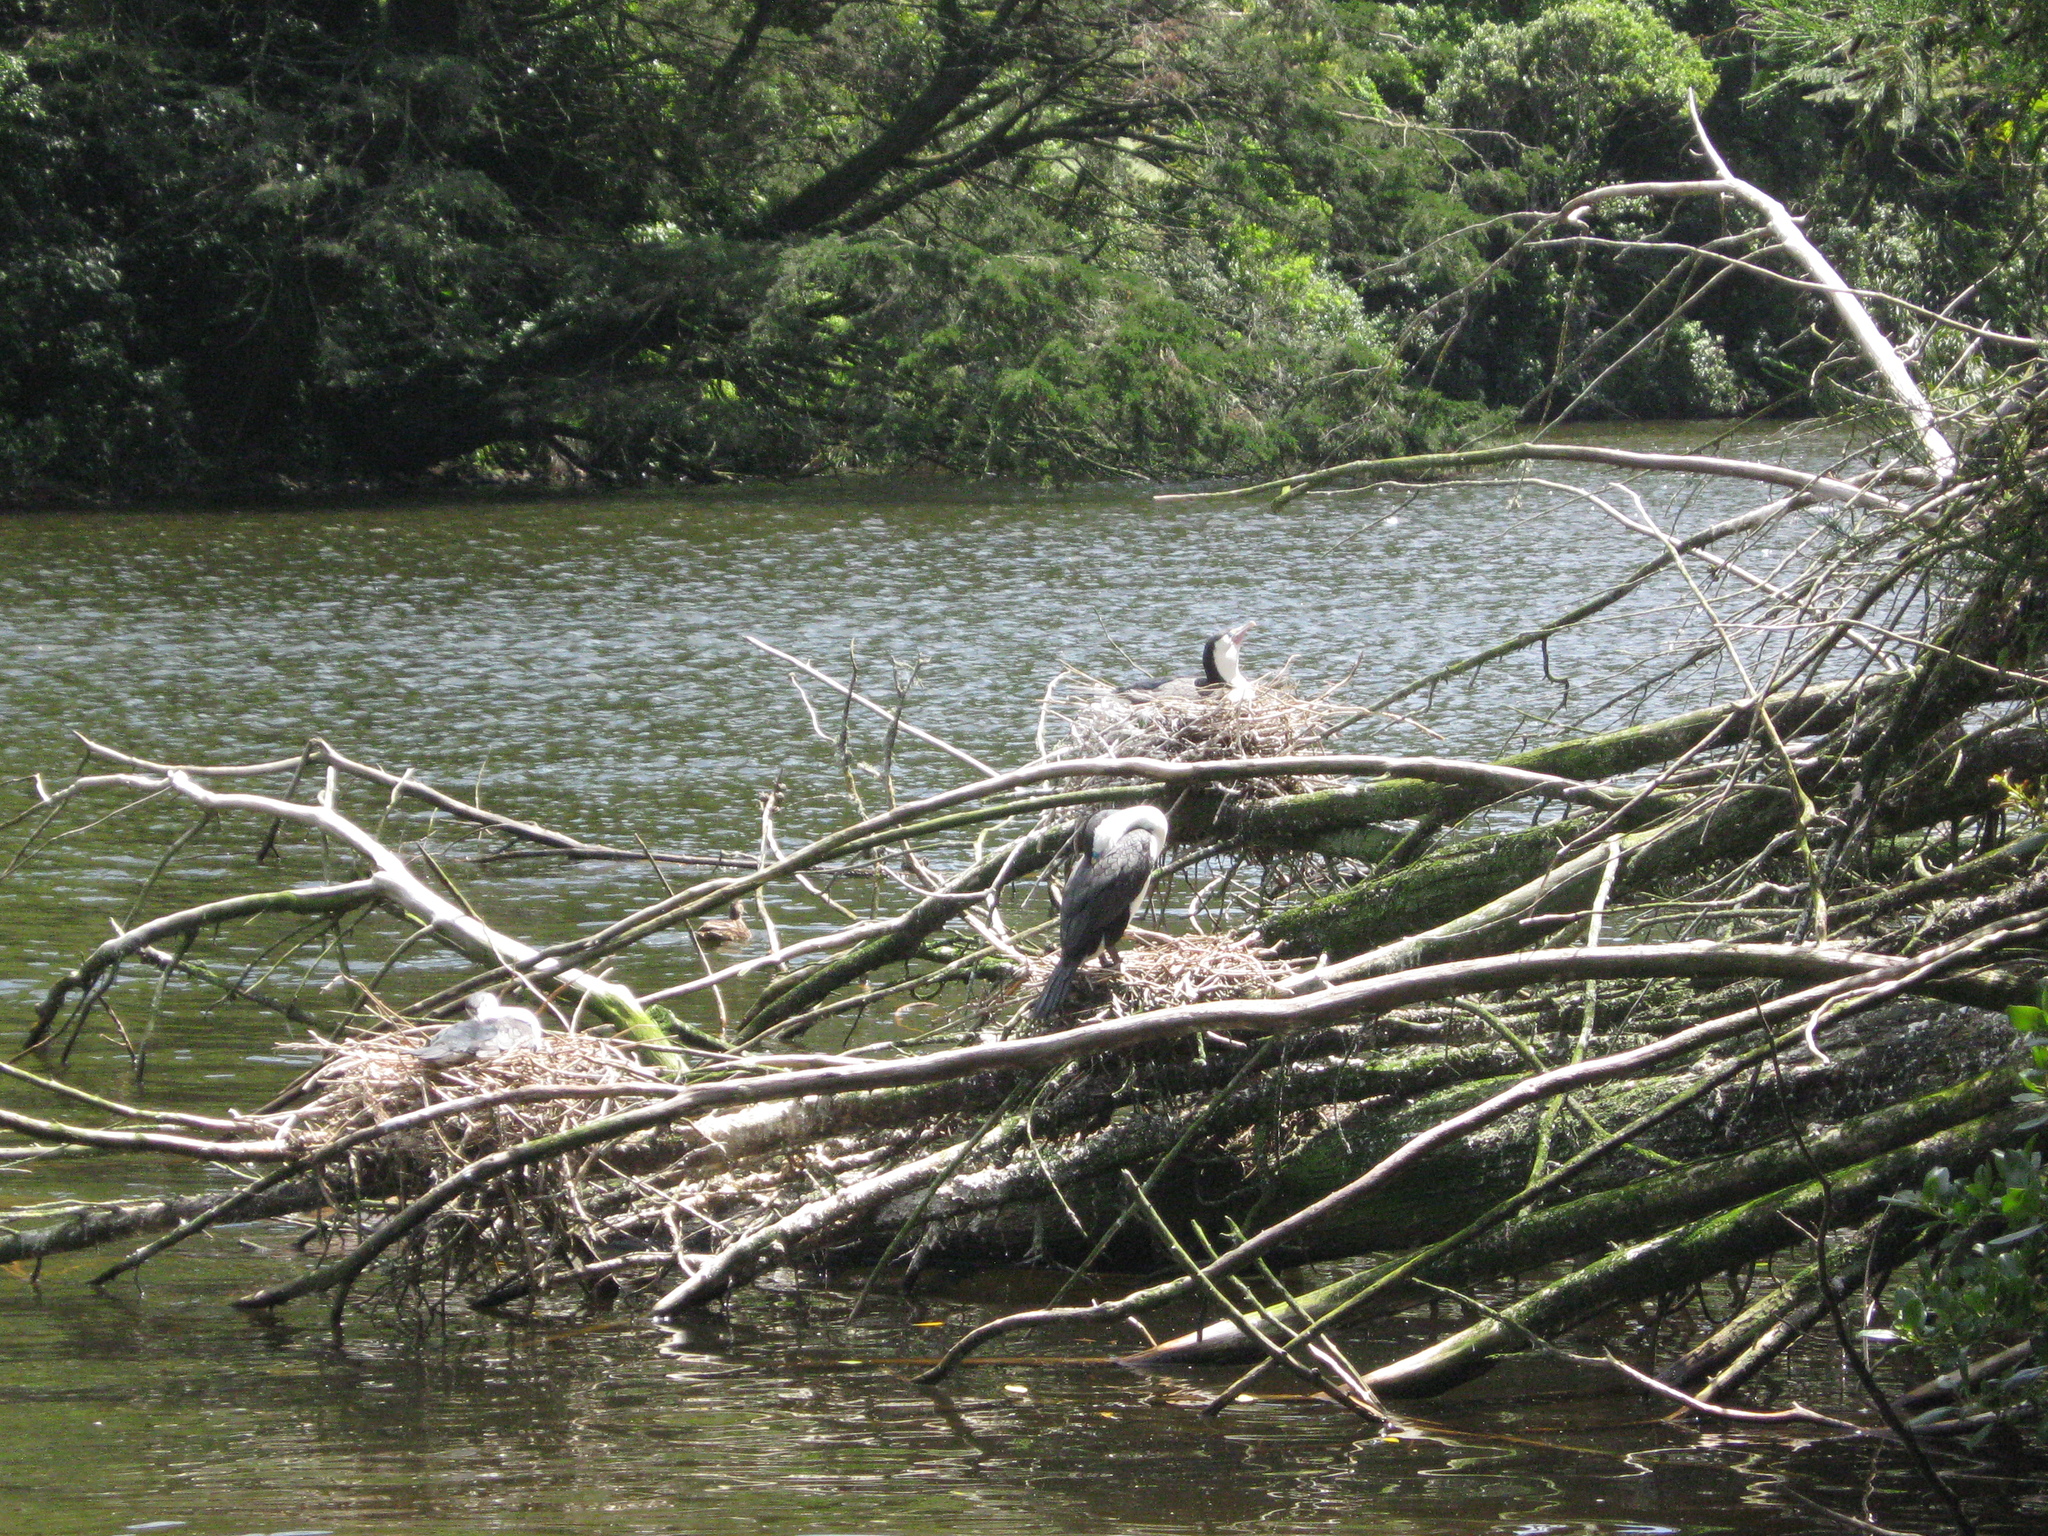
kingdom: Animalia
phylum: Chordata
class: Aves
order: Suliformes
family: Phalacrocoracidae
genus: Phalacrocorax
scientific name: Phalacrocorax varius
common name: Pied cormorant
